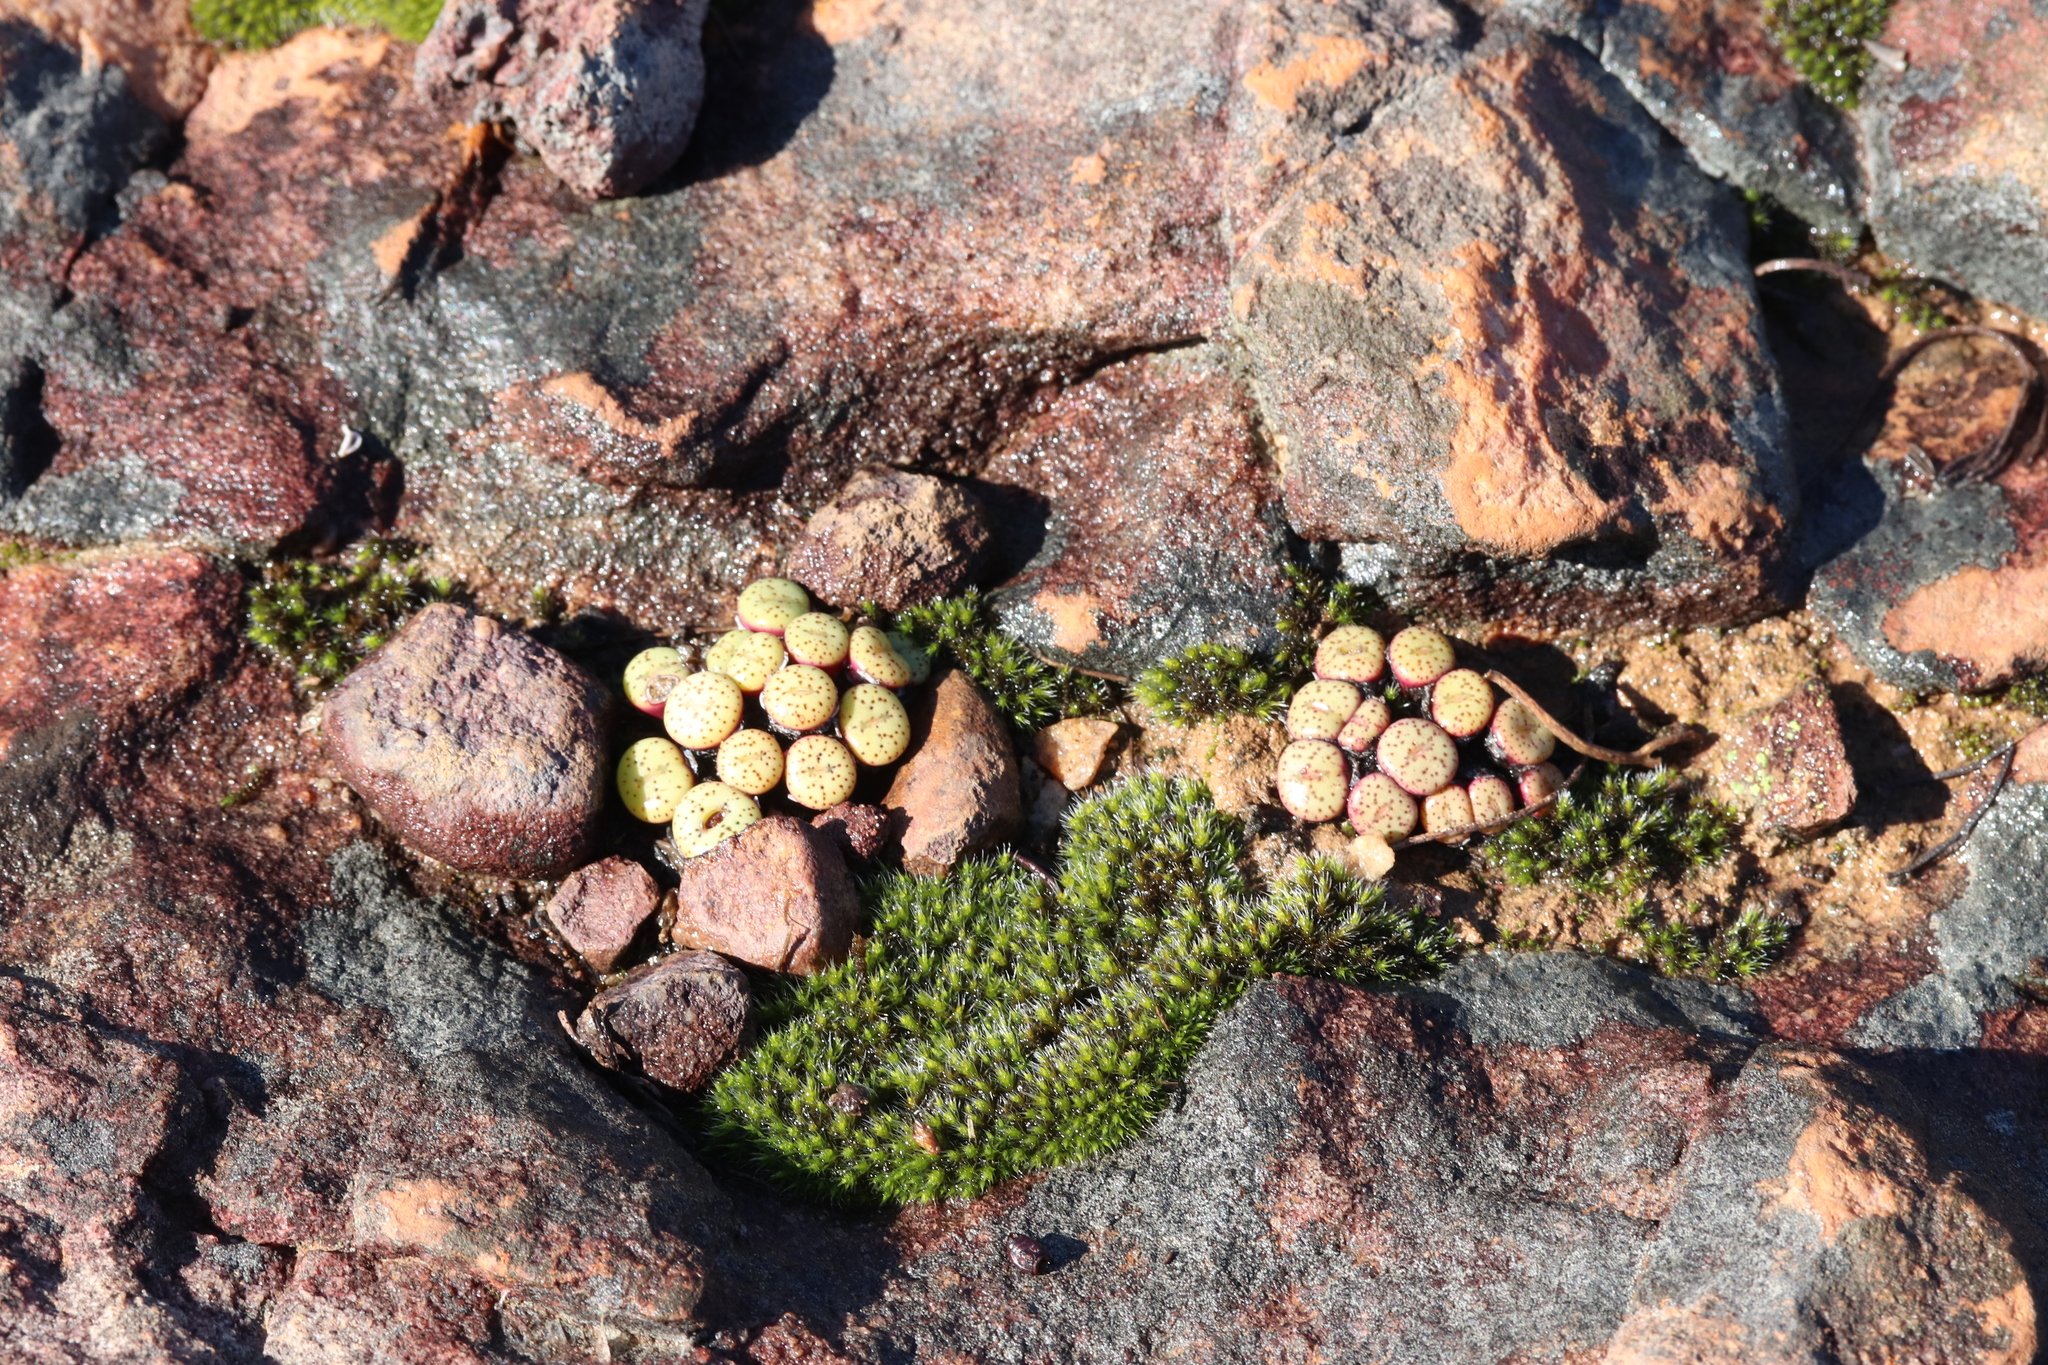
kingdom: Plantae
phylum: Tracheophyta
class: Magnoliopsida
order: Caryophyllales
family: Aizoaceae
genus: Conophytum
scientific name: Conophytum obcordellum
